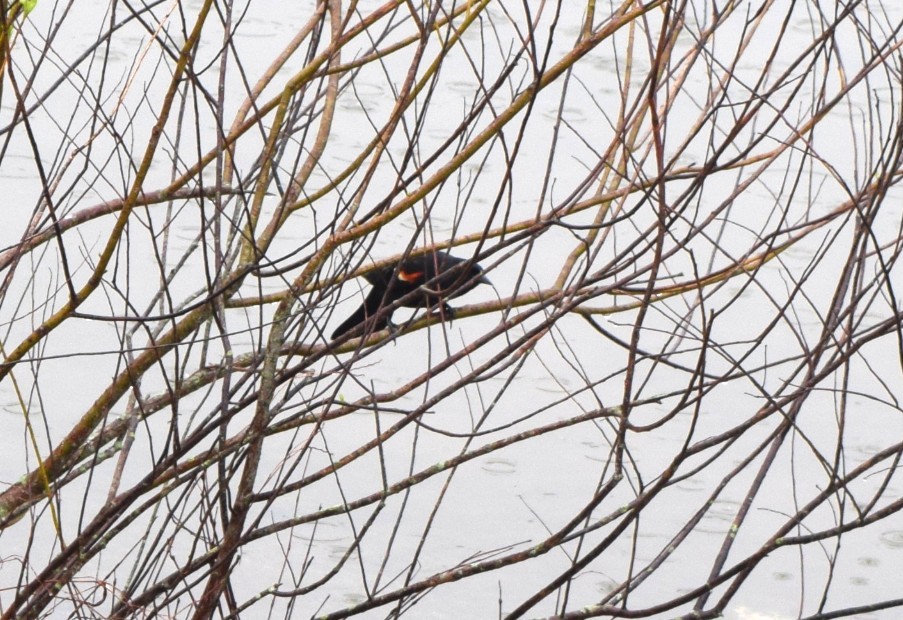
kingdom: Animalia
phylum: Chordata
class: Aves
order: Passeriformes
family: Icteridae
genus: Agelaius
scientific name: Agelaius phoeniceus
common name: Red-winged blackbird
